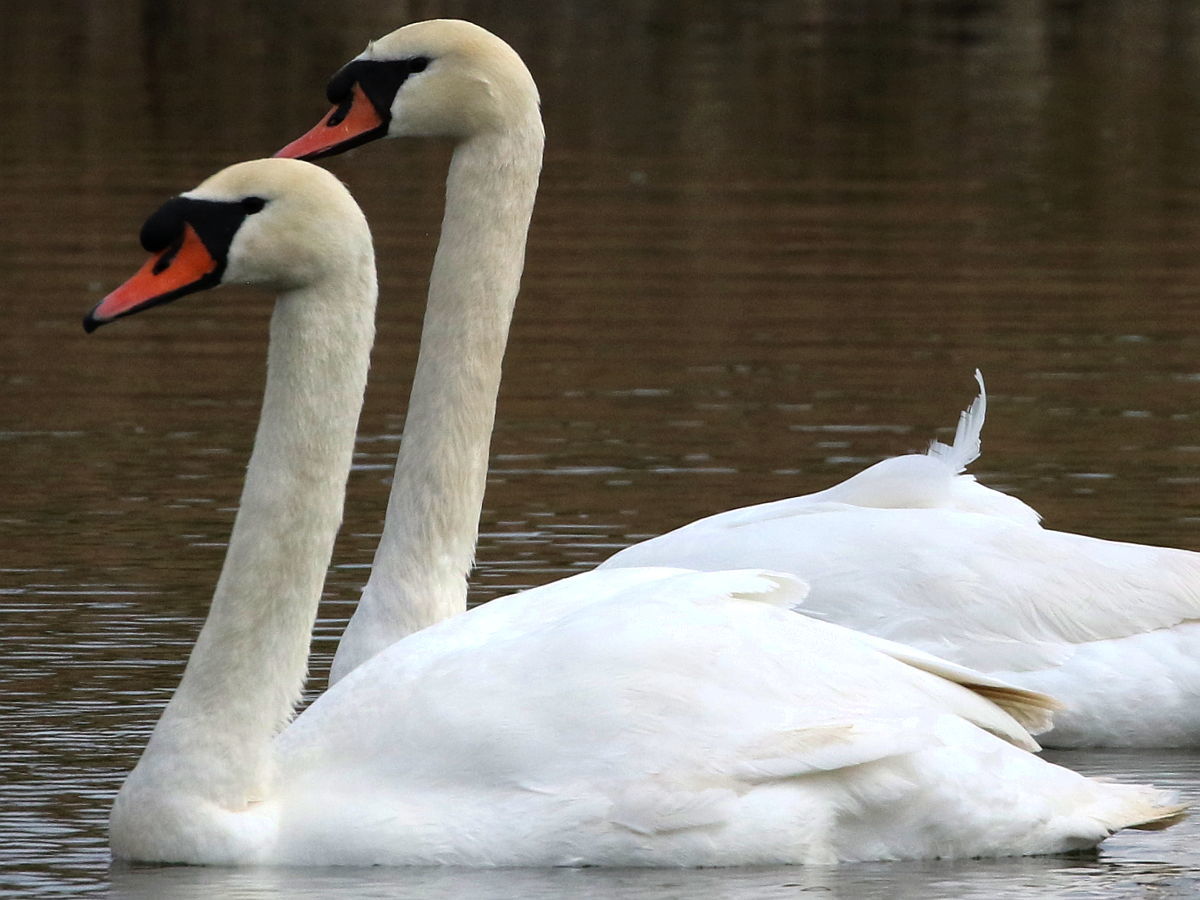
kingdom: Animalia
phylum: Chordata
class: Aves
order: Anseriformes
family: Anatidae
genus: Cygnus
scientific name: Cygnus olor
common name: Mute swan
